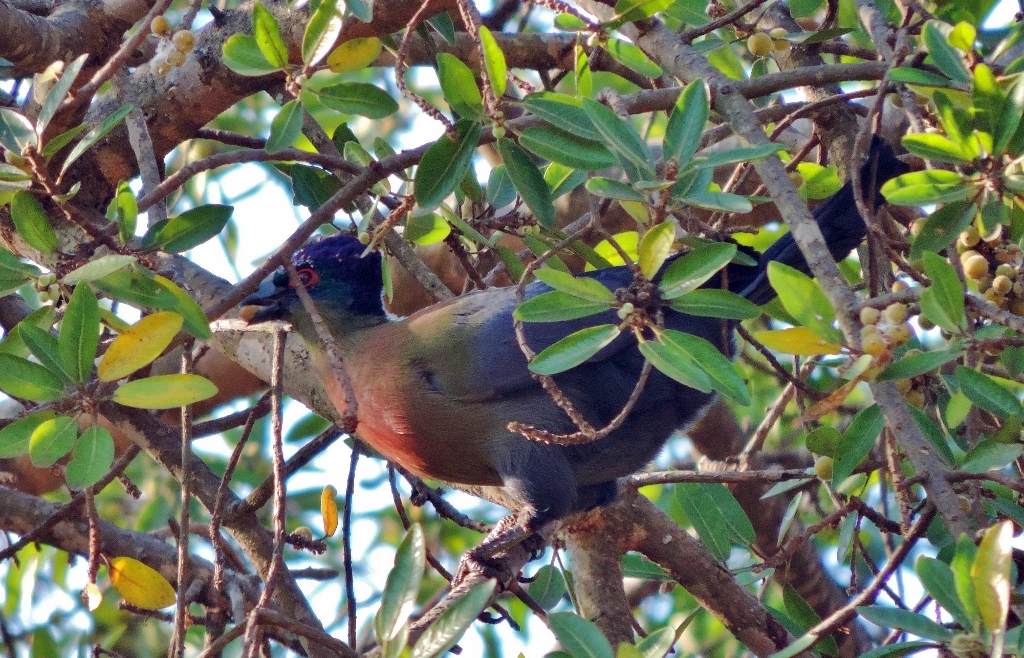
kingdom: Animalia
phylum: Chordata
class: Aves
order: Musophagiformes
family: Musophagidae
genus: Tauraco
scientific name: Tauraco porphyreolophus
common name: Purple-crested turaco
